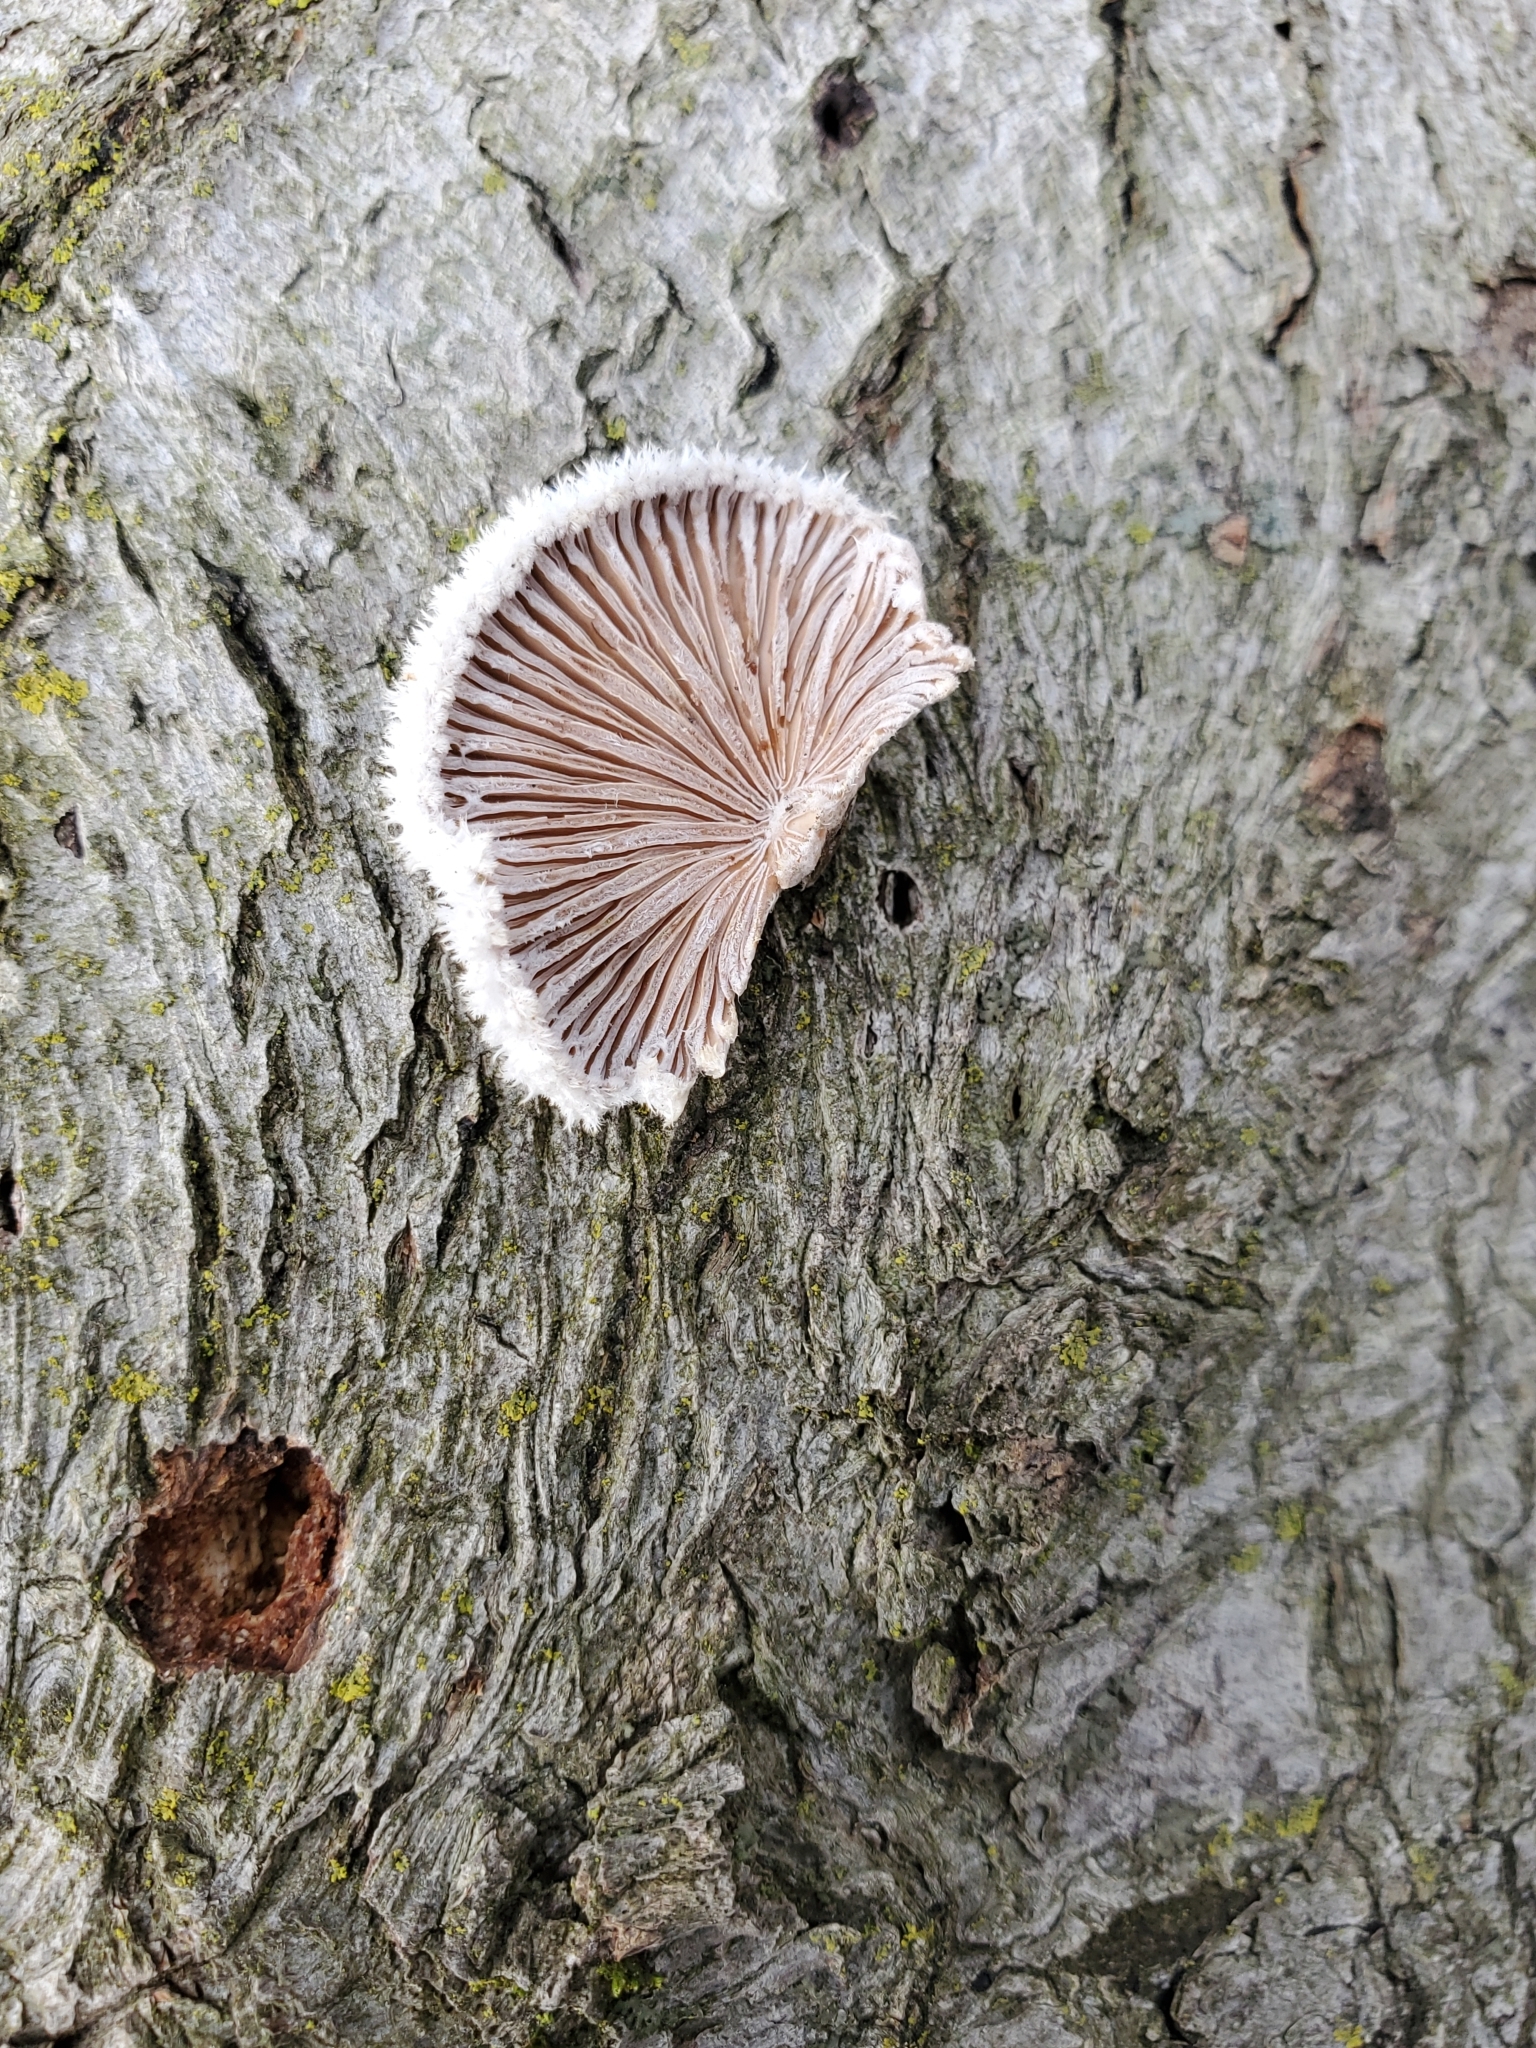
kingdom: Fungi
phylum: Basidiomycota
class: Agaricomycetes
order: Agaricales
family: Schizophyllaceae
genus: Schizophyllum
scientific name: Schizophyllum commune
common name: Common porecrust
